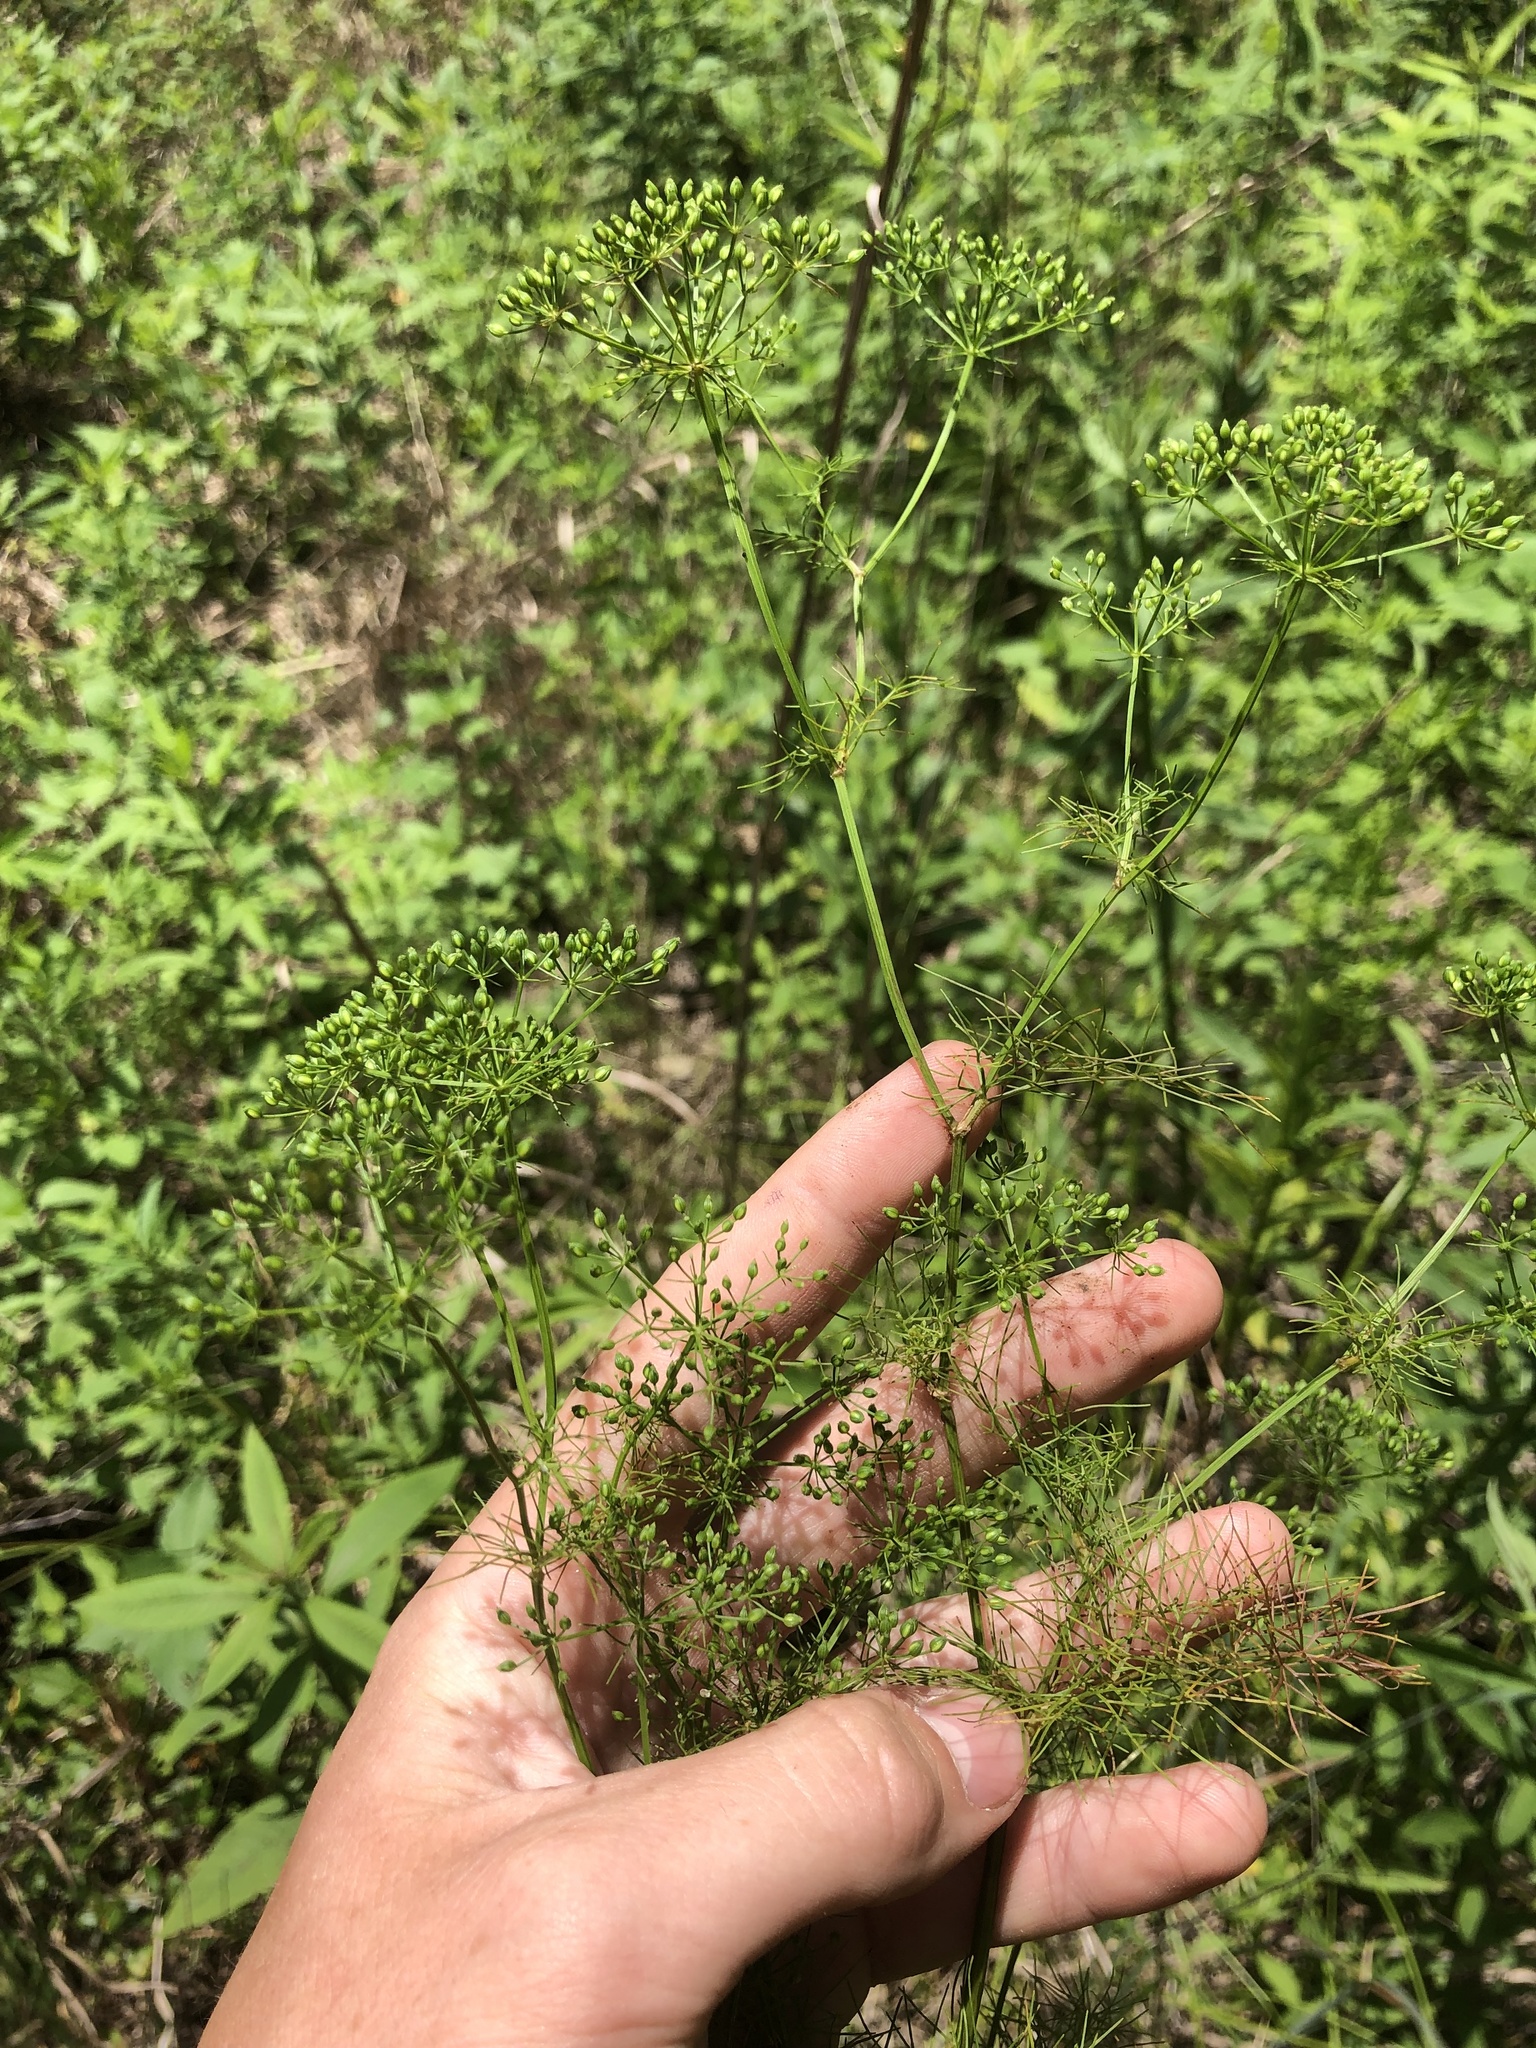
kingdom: Plantae
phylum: Tracheophyta
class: Magnoliopsida
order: Apiales
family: Apiaceae
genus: Ptilimnium
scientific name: Ptilimnium capillaceum
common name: Herbwilliam
